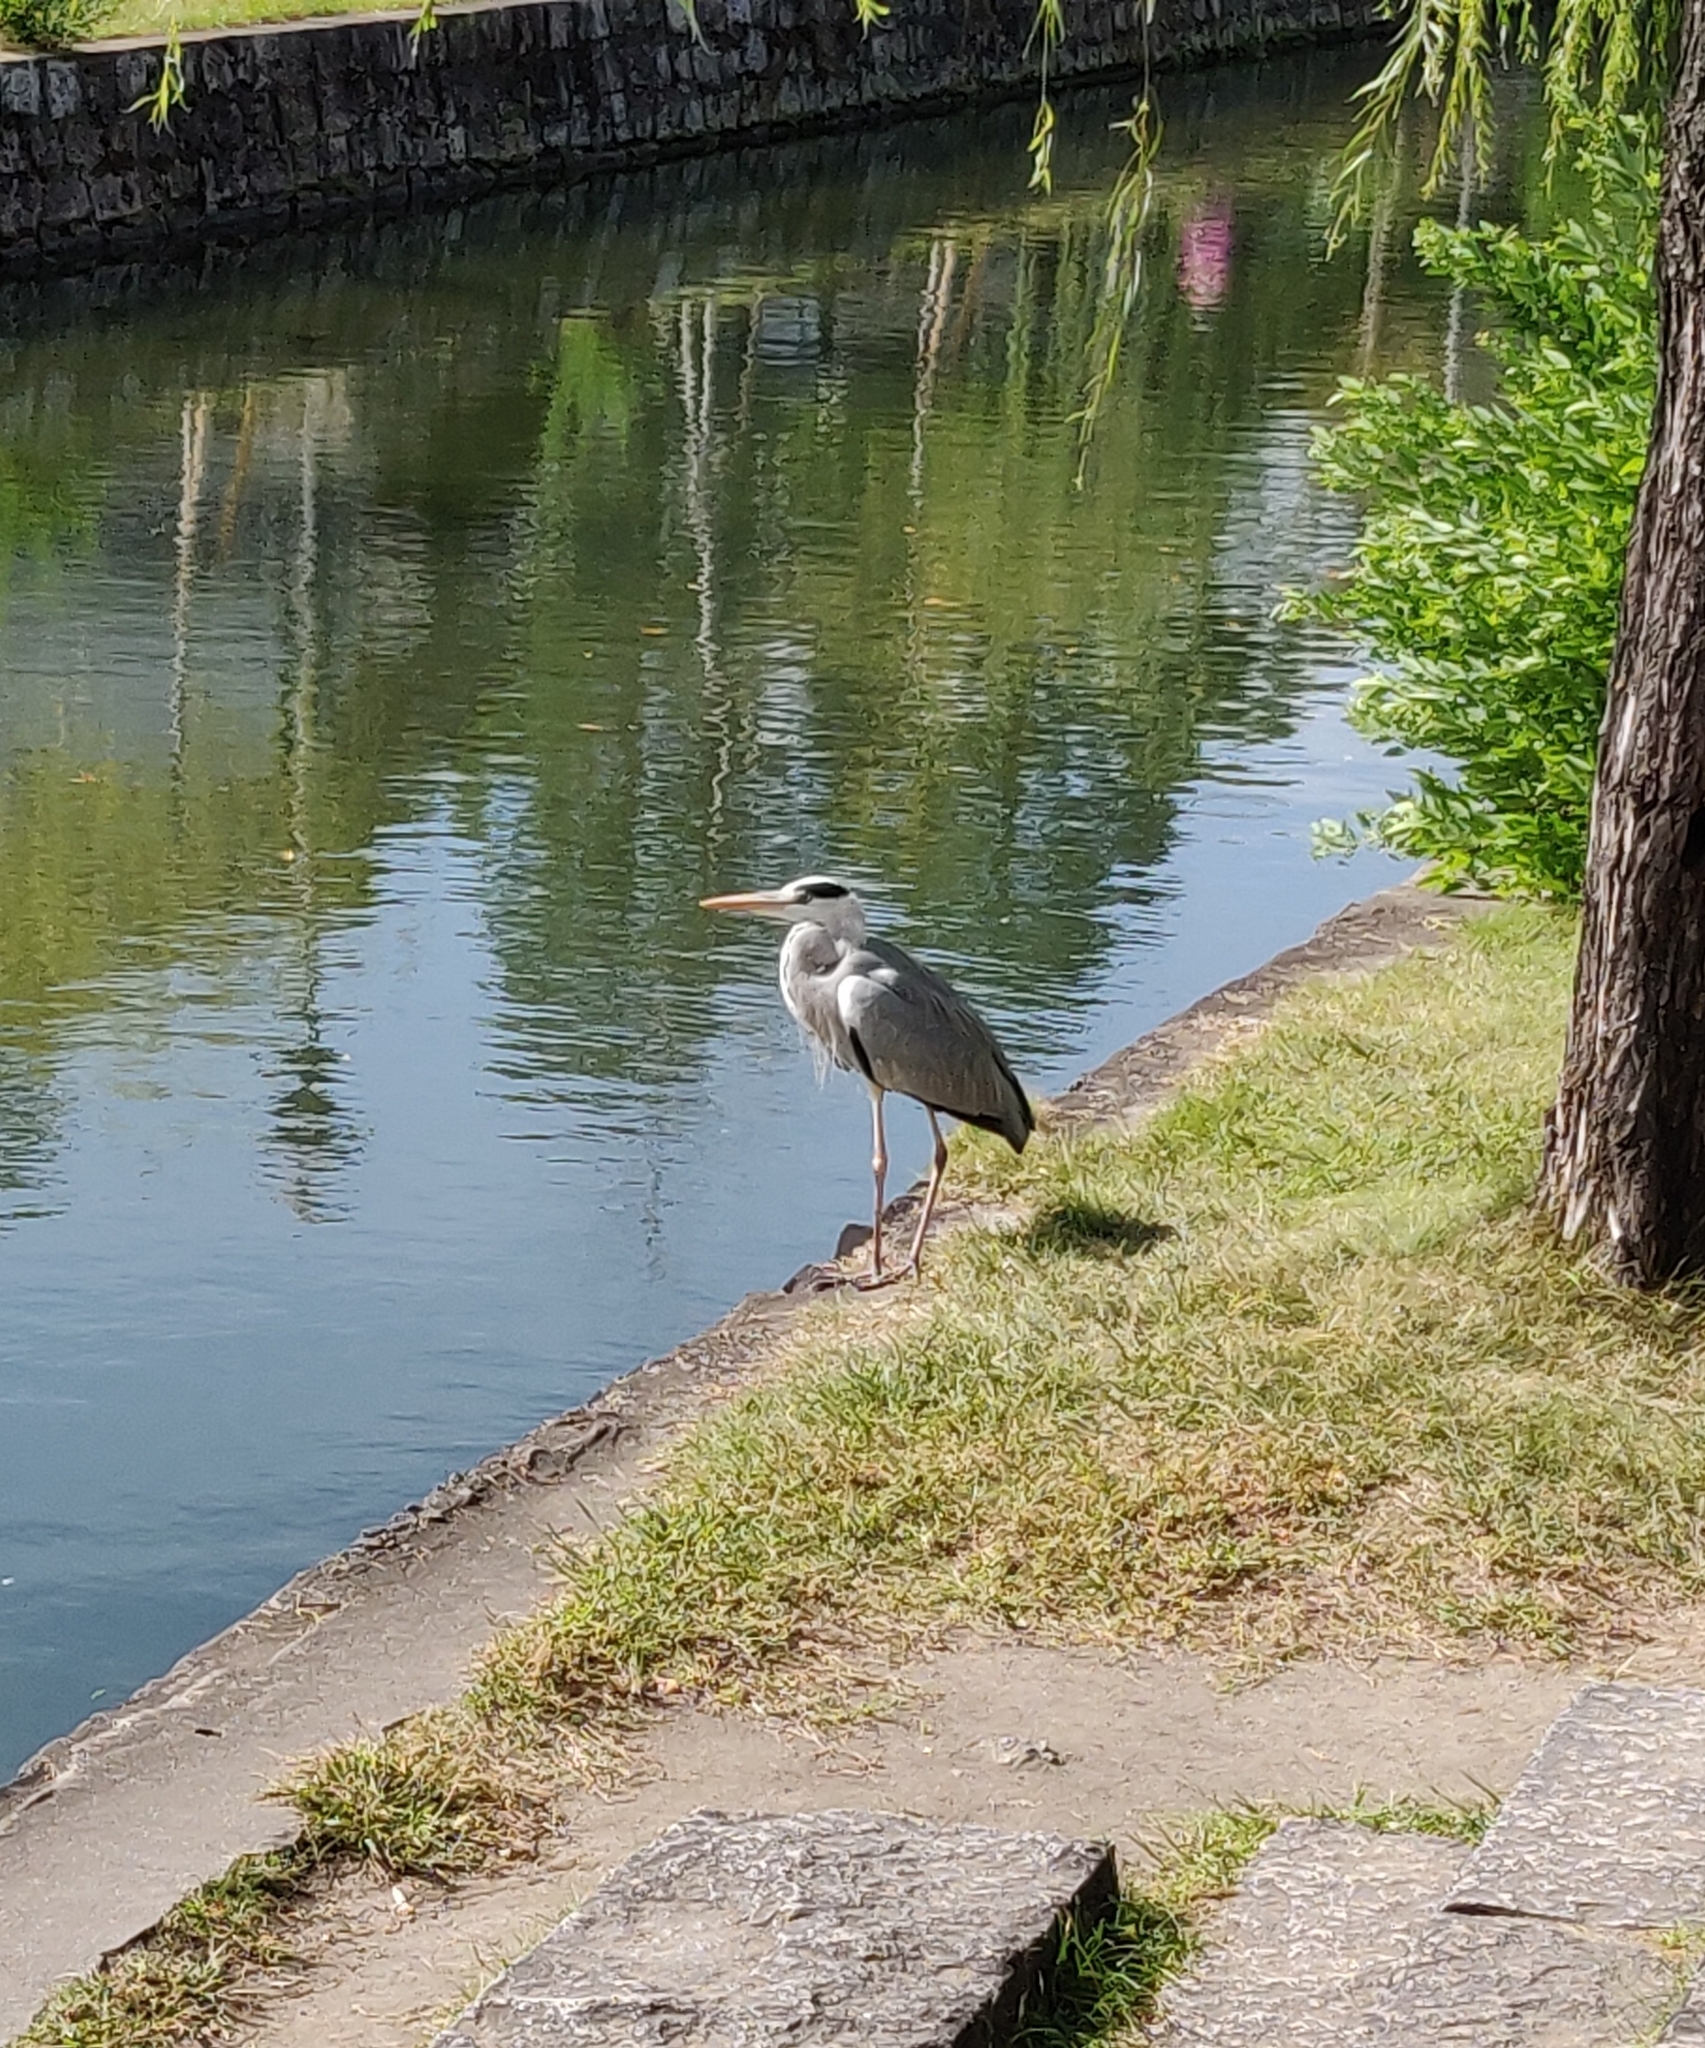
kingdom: Animalia
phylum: Chordata
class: Aves
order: Pelecaniformes
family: Ardeidae
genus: Ardea
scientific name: Ardea cinerea
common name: Grey heron
